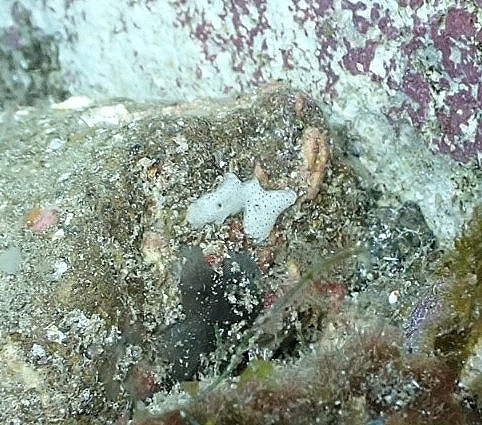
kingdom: Animalia
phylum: Chordata
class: Ascidiacea
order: Aplousobranchia
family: Didemnidae
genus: Lissoclinum
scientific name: Lissoclinum perforatum
